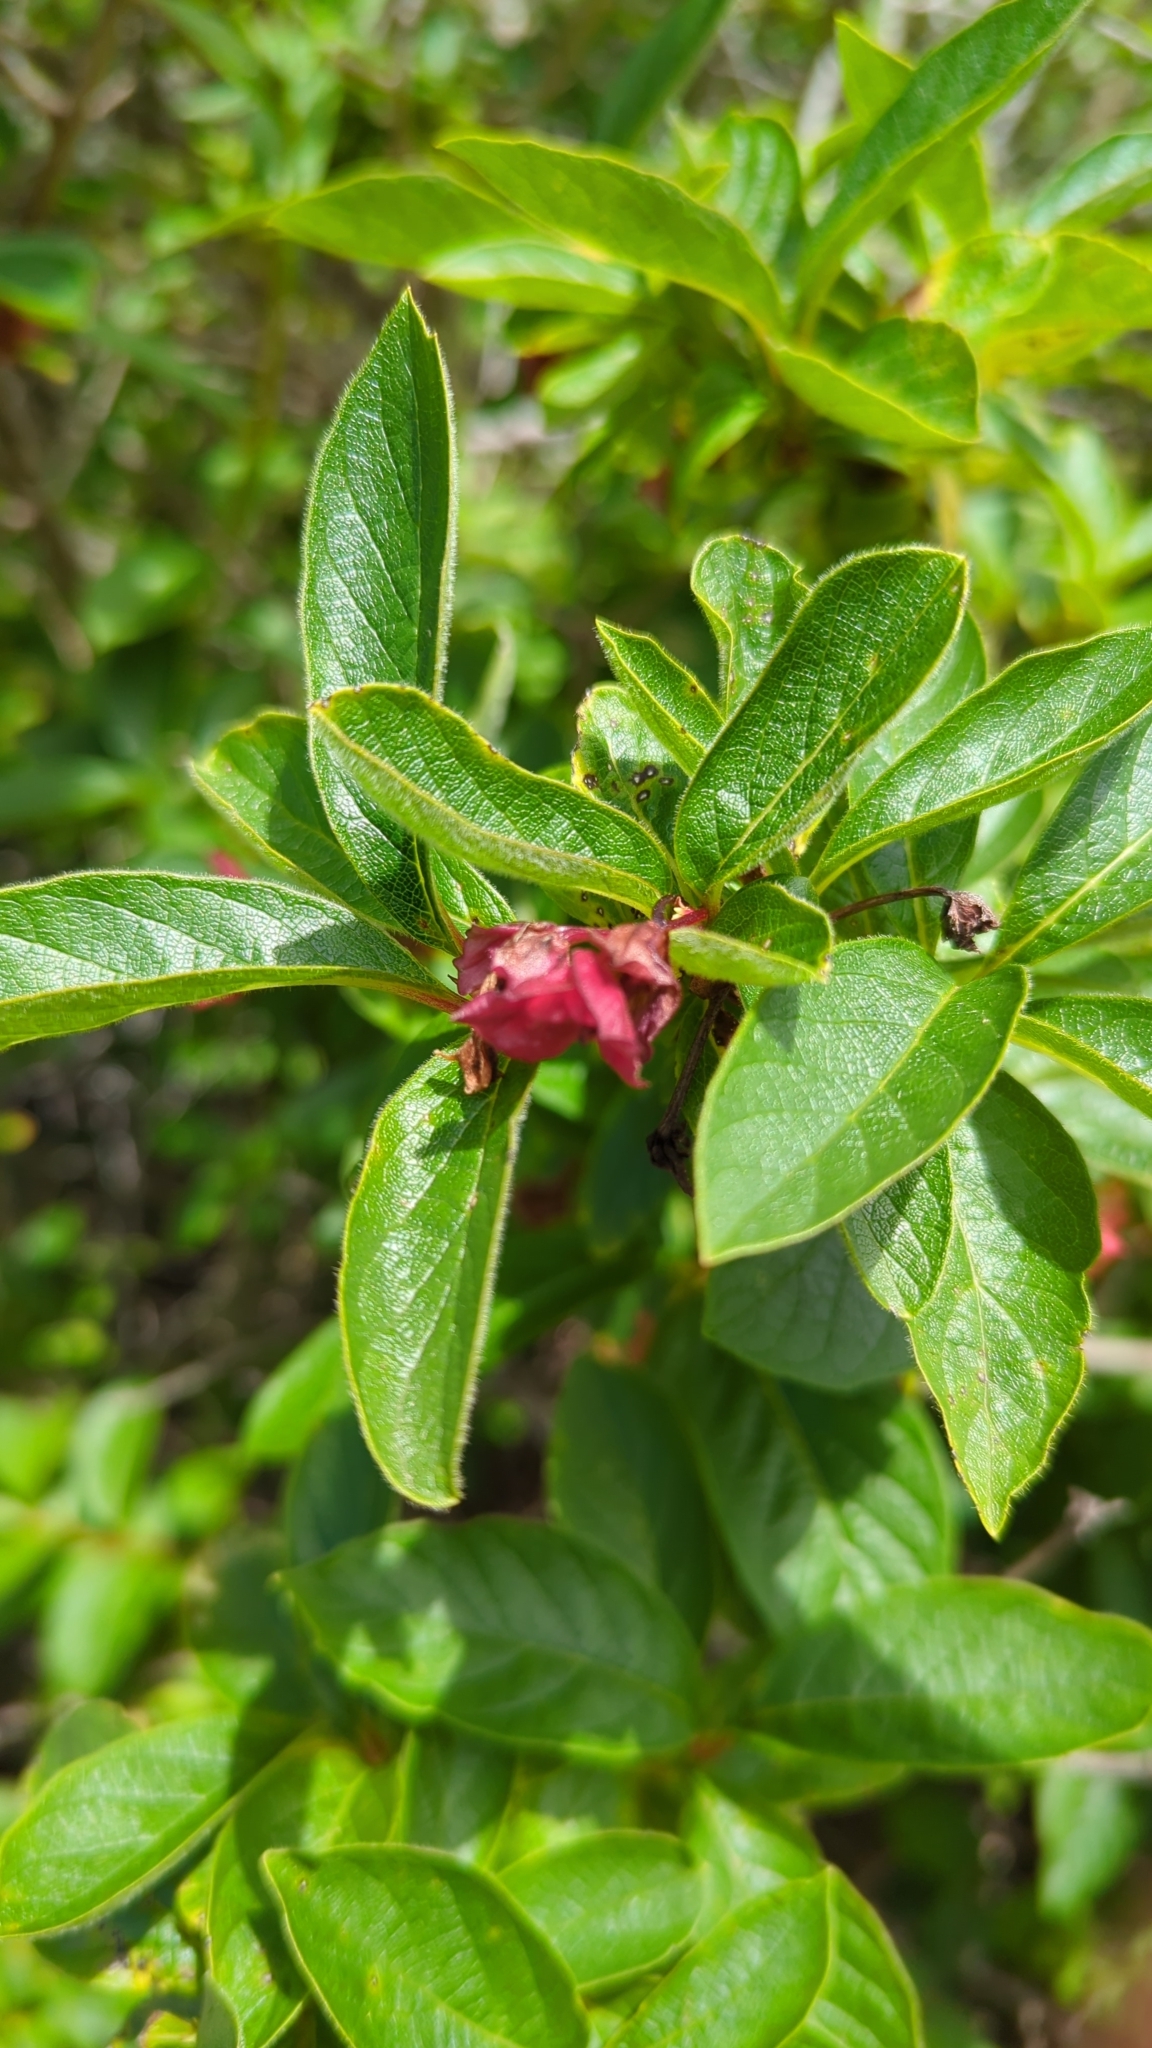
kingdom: Plantae
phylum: Tracheophyta
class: Magnoliopsida
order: Dipsacales
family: Caprifoliaceae
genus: Lonicera
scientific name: Lonicera involucrata
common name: Californian honeysuckle
